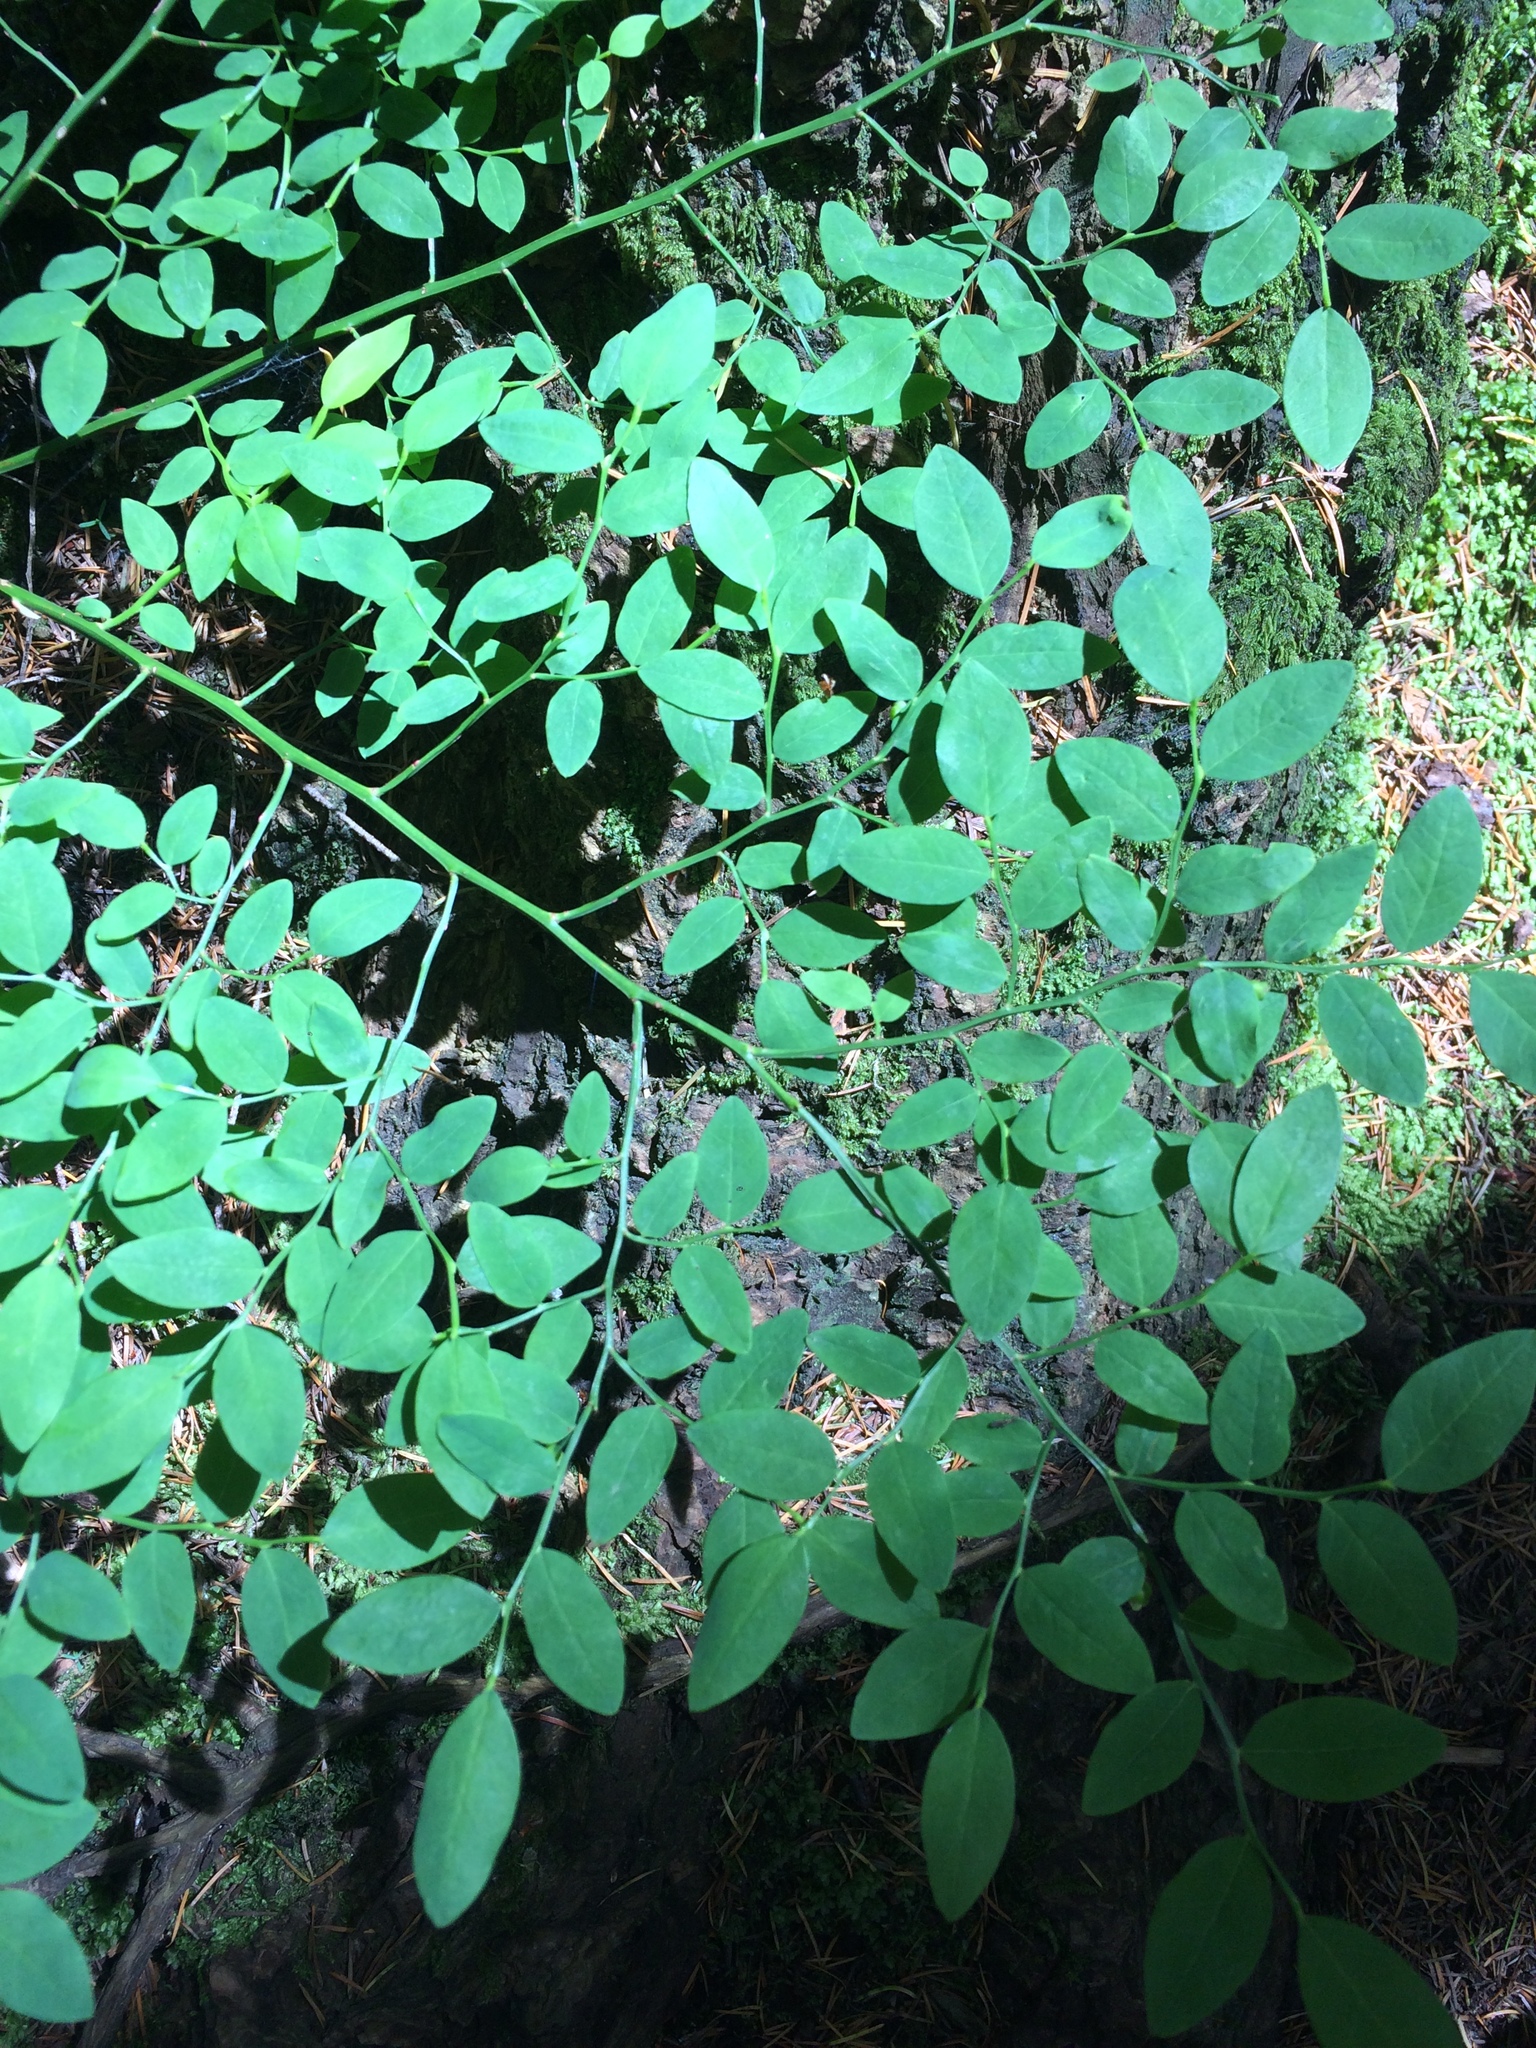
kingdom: Plantae
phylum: Tracheophyta
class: Magnoliopsida
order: Ericales
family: Ericaceae
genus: Vaccinium
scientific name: Vaccinium parvifolium
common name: Red-huckleberry
